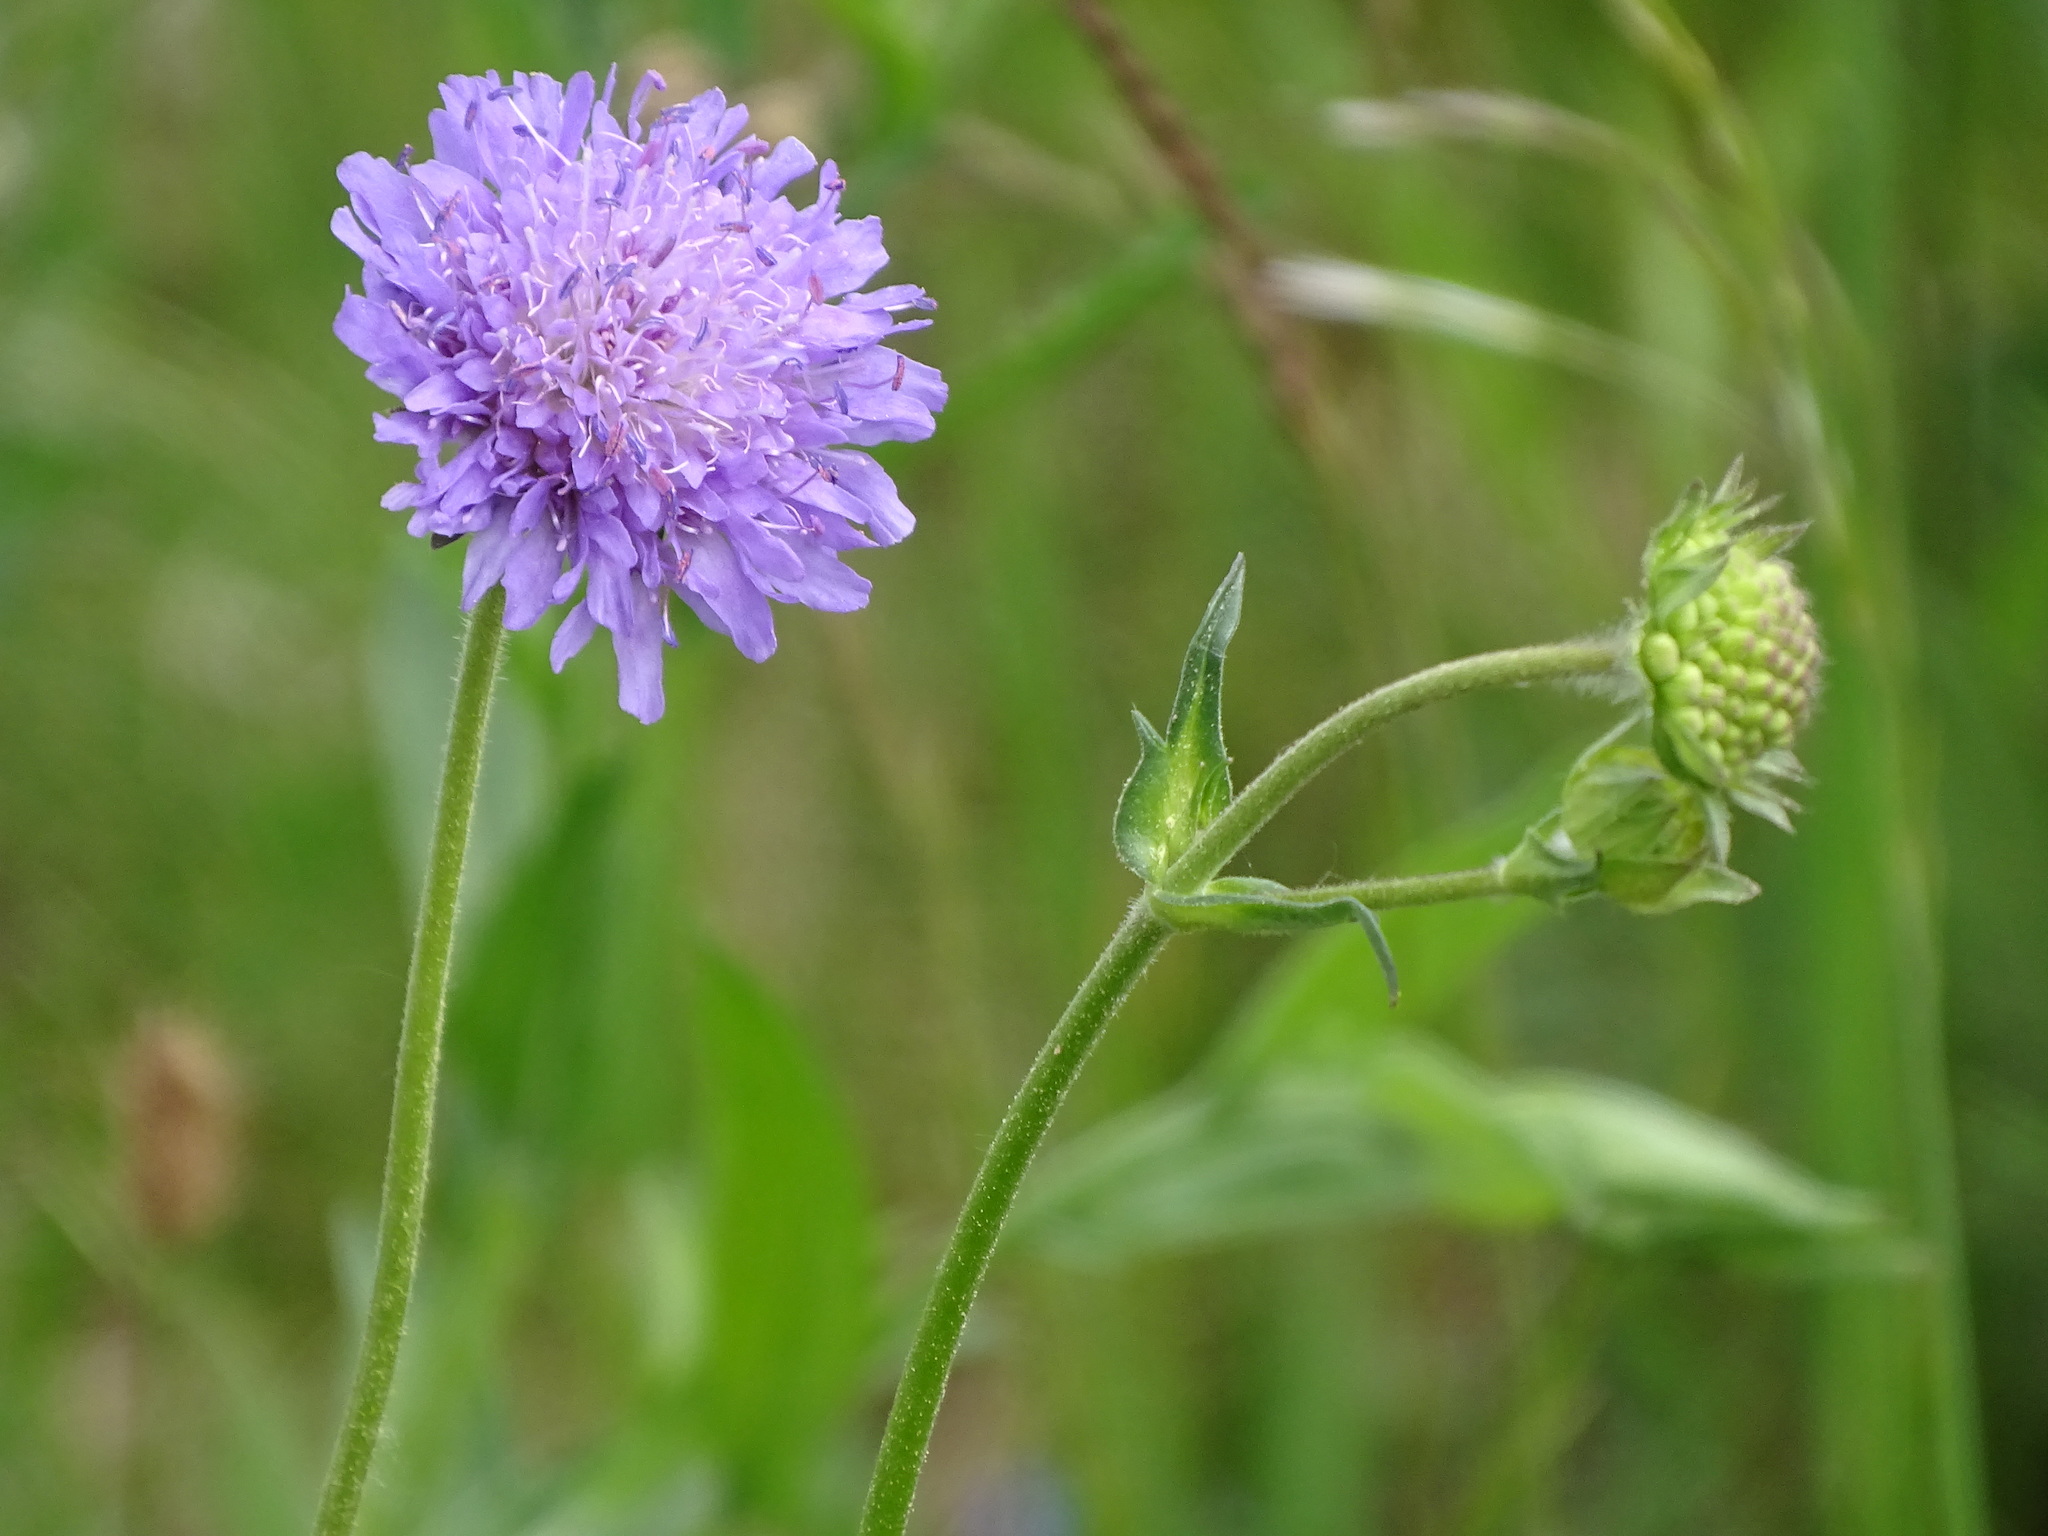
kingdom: Plantae
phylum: Tracheophyta
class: Magnoliopsida
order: Dipsacales
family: Caprifoliaceae
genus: Knautia
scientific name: Knautia arvensis
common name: Field scabiosa
